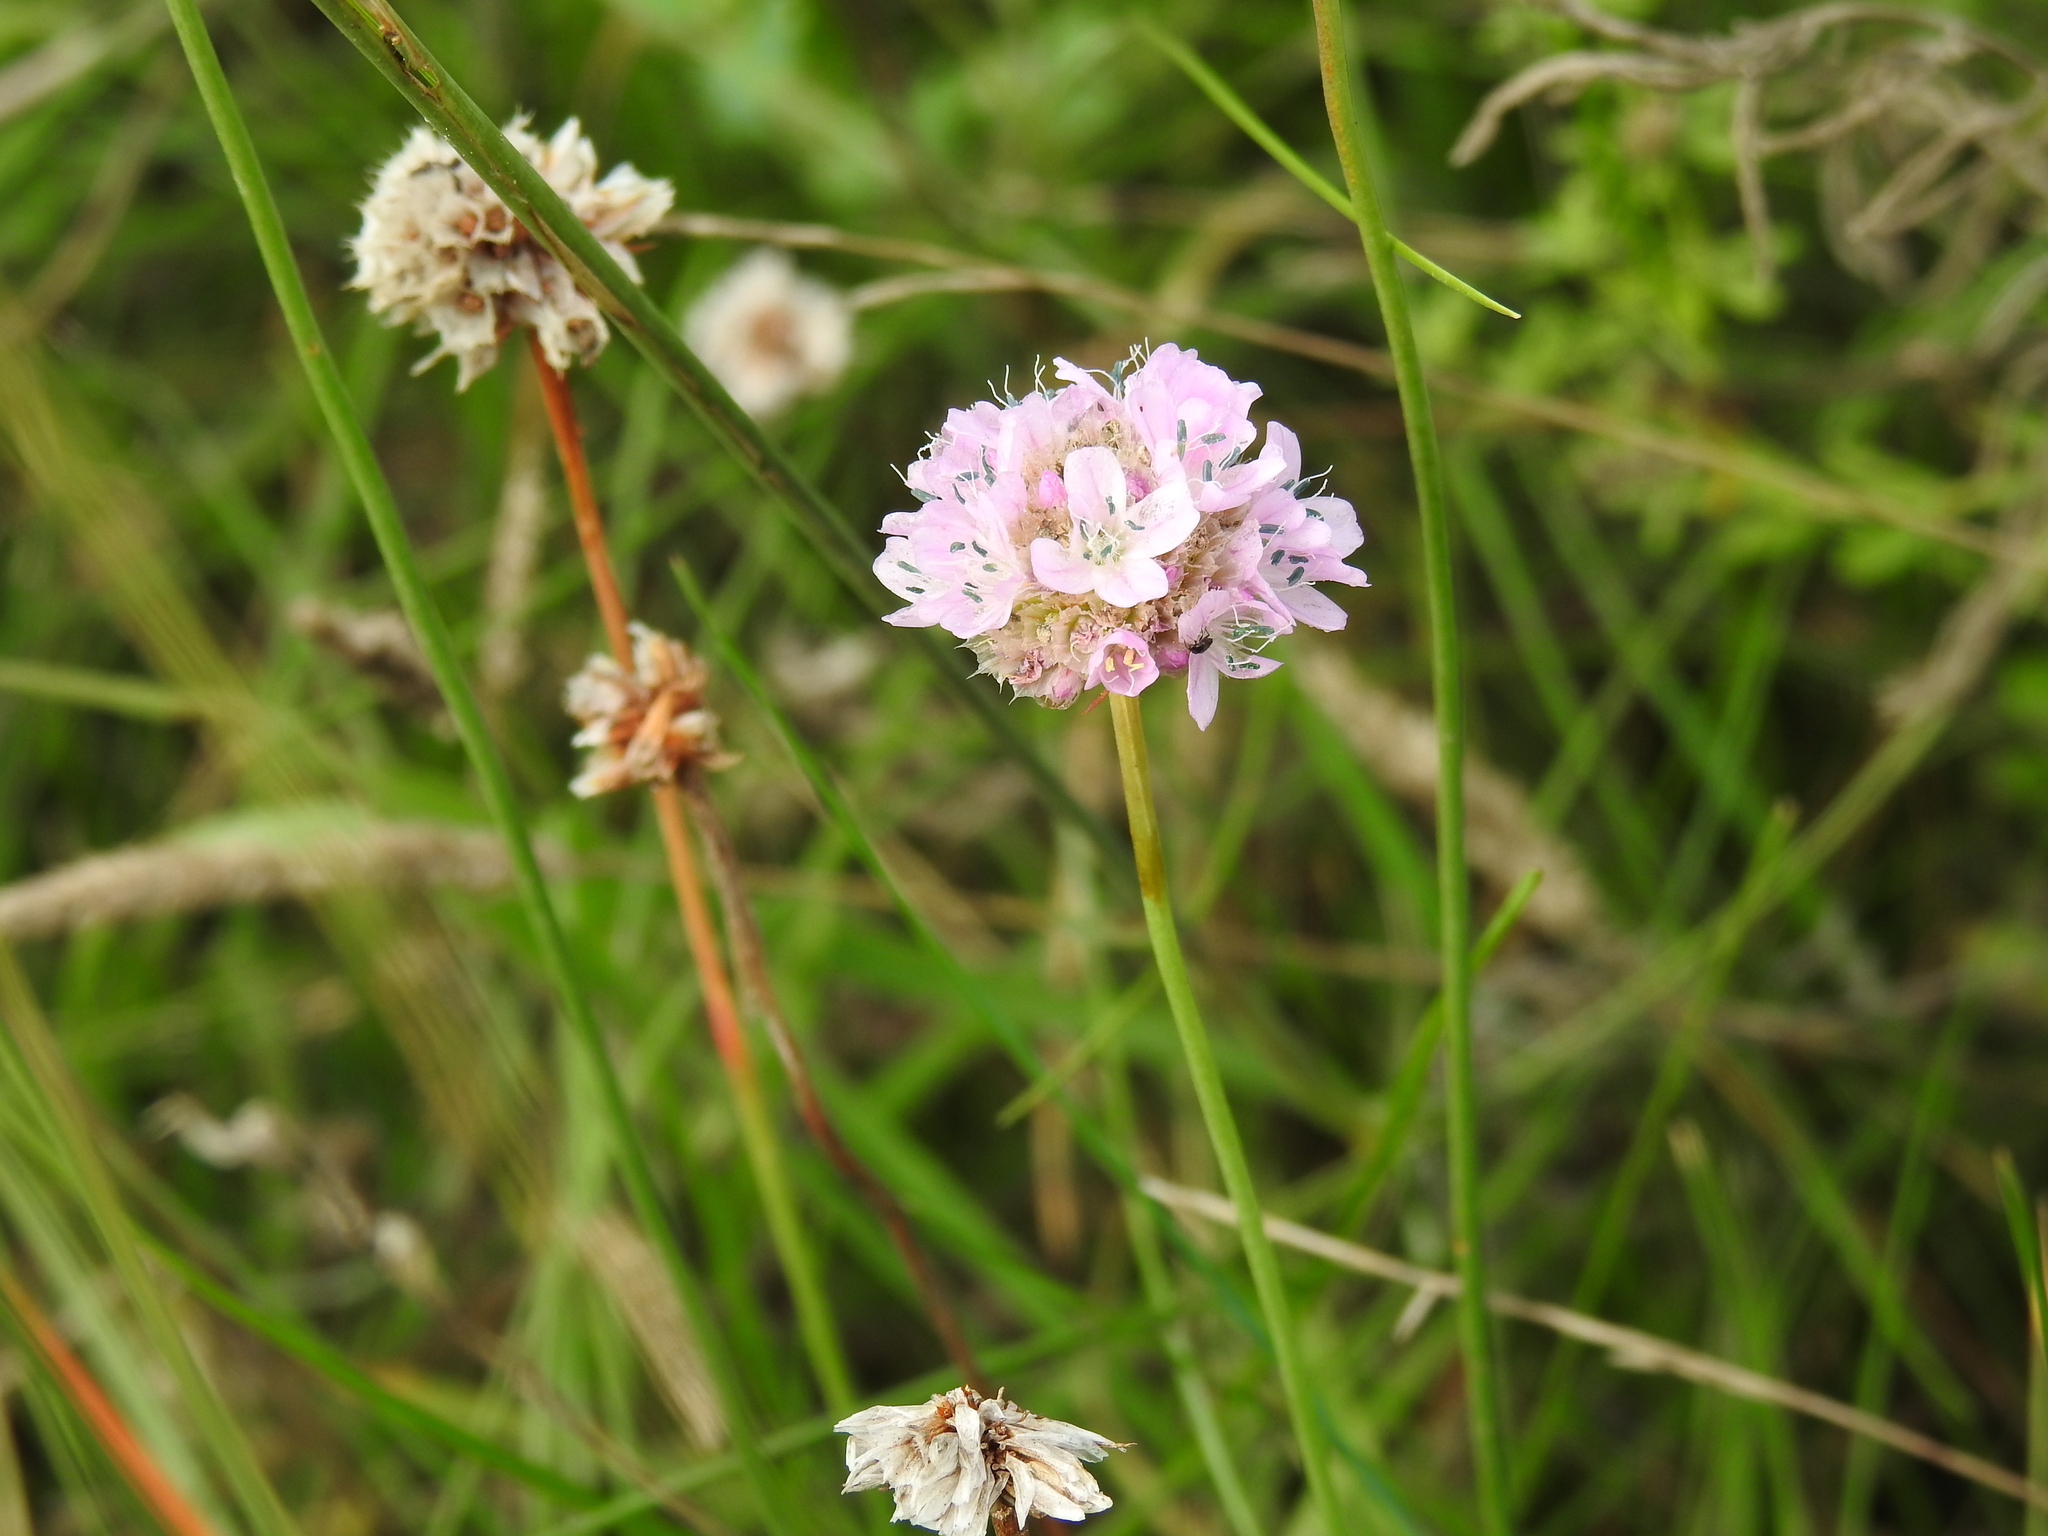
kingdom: Plantae
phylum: Tracheophyta
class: Magnoliopsida
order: Caryophyllales
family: Plumbaginaceae
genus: Armeria
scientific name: Armeria maritima
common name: Thrift
